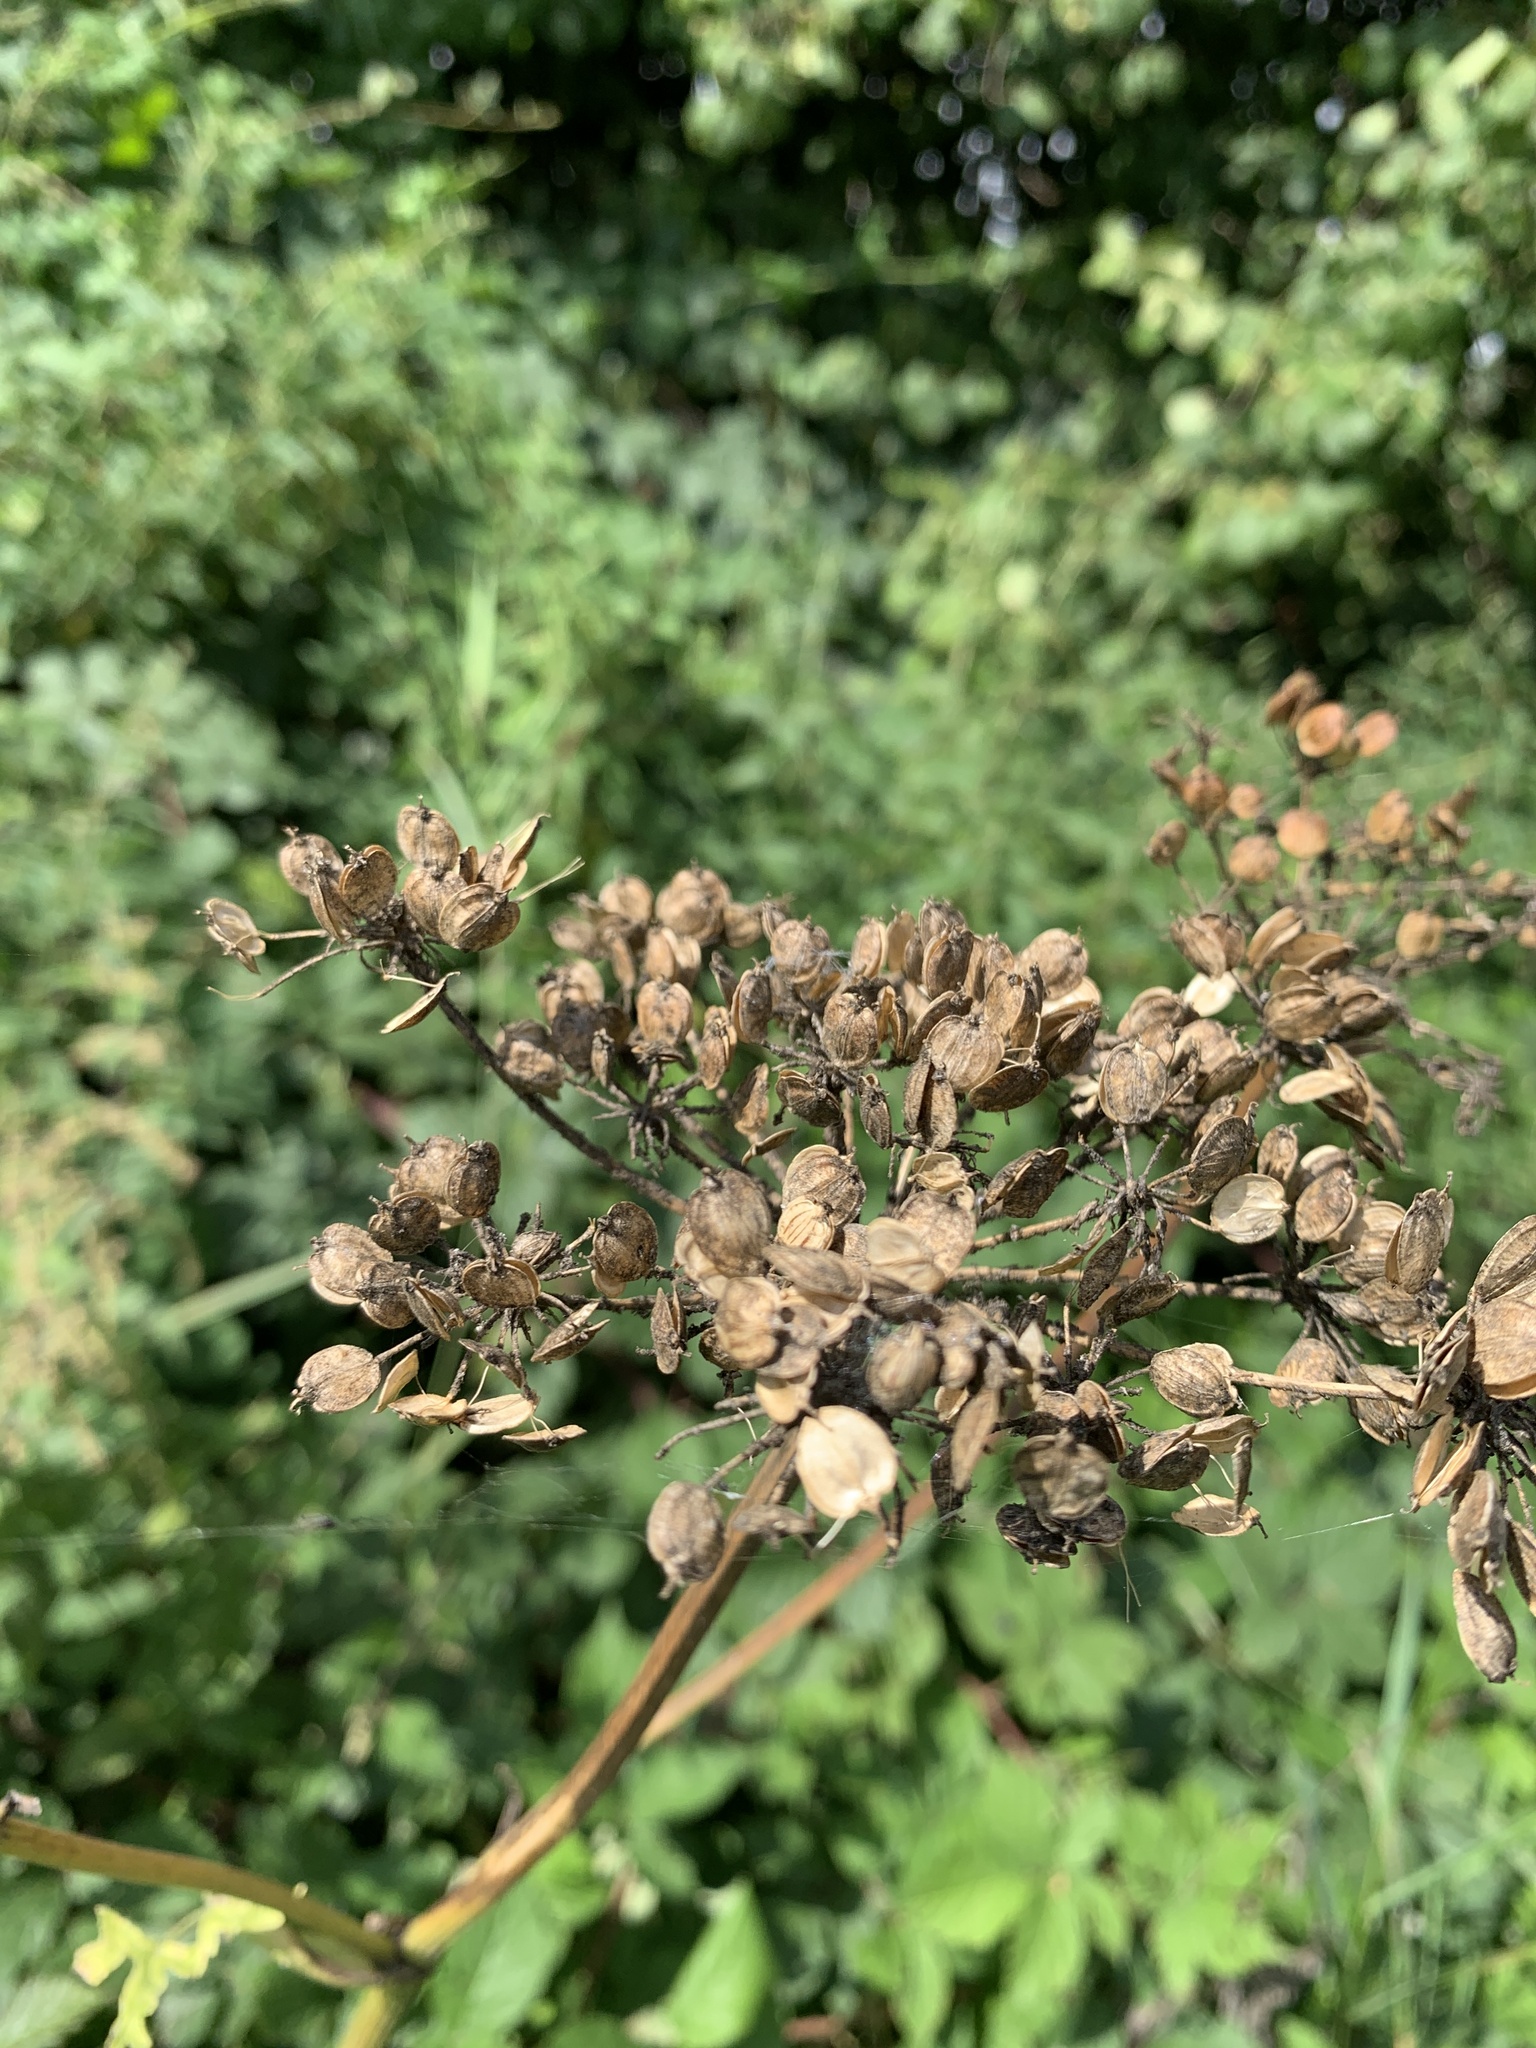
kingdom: Plantae
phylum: Tracheophyta
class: Magnoliopsida
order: Apiales
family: Apiaceae
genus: Heracleum
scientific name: Heracleum sphondylium
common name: Hogweed
